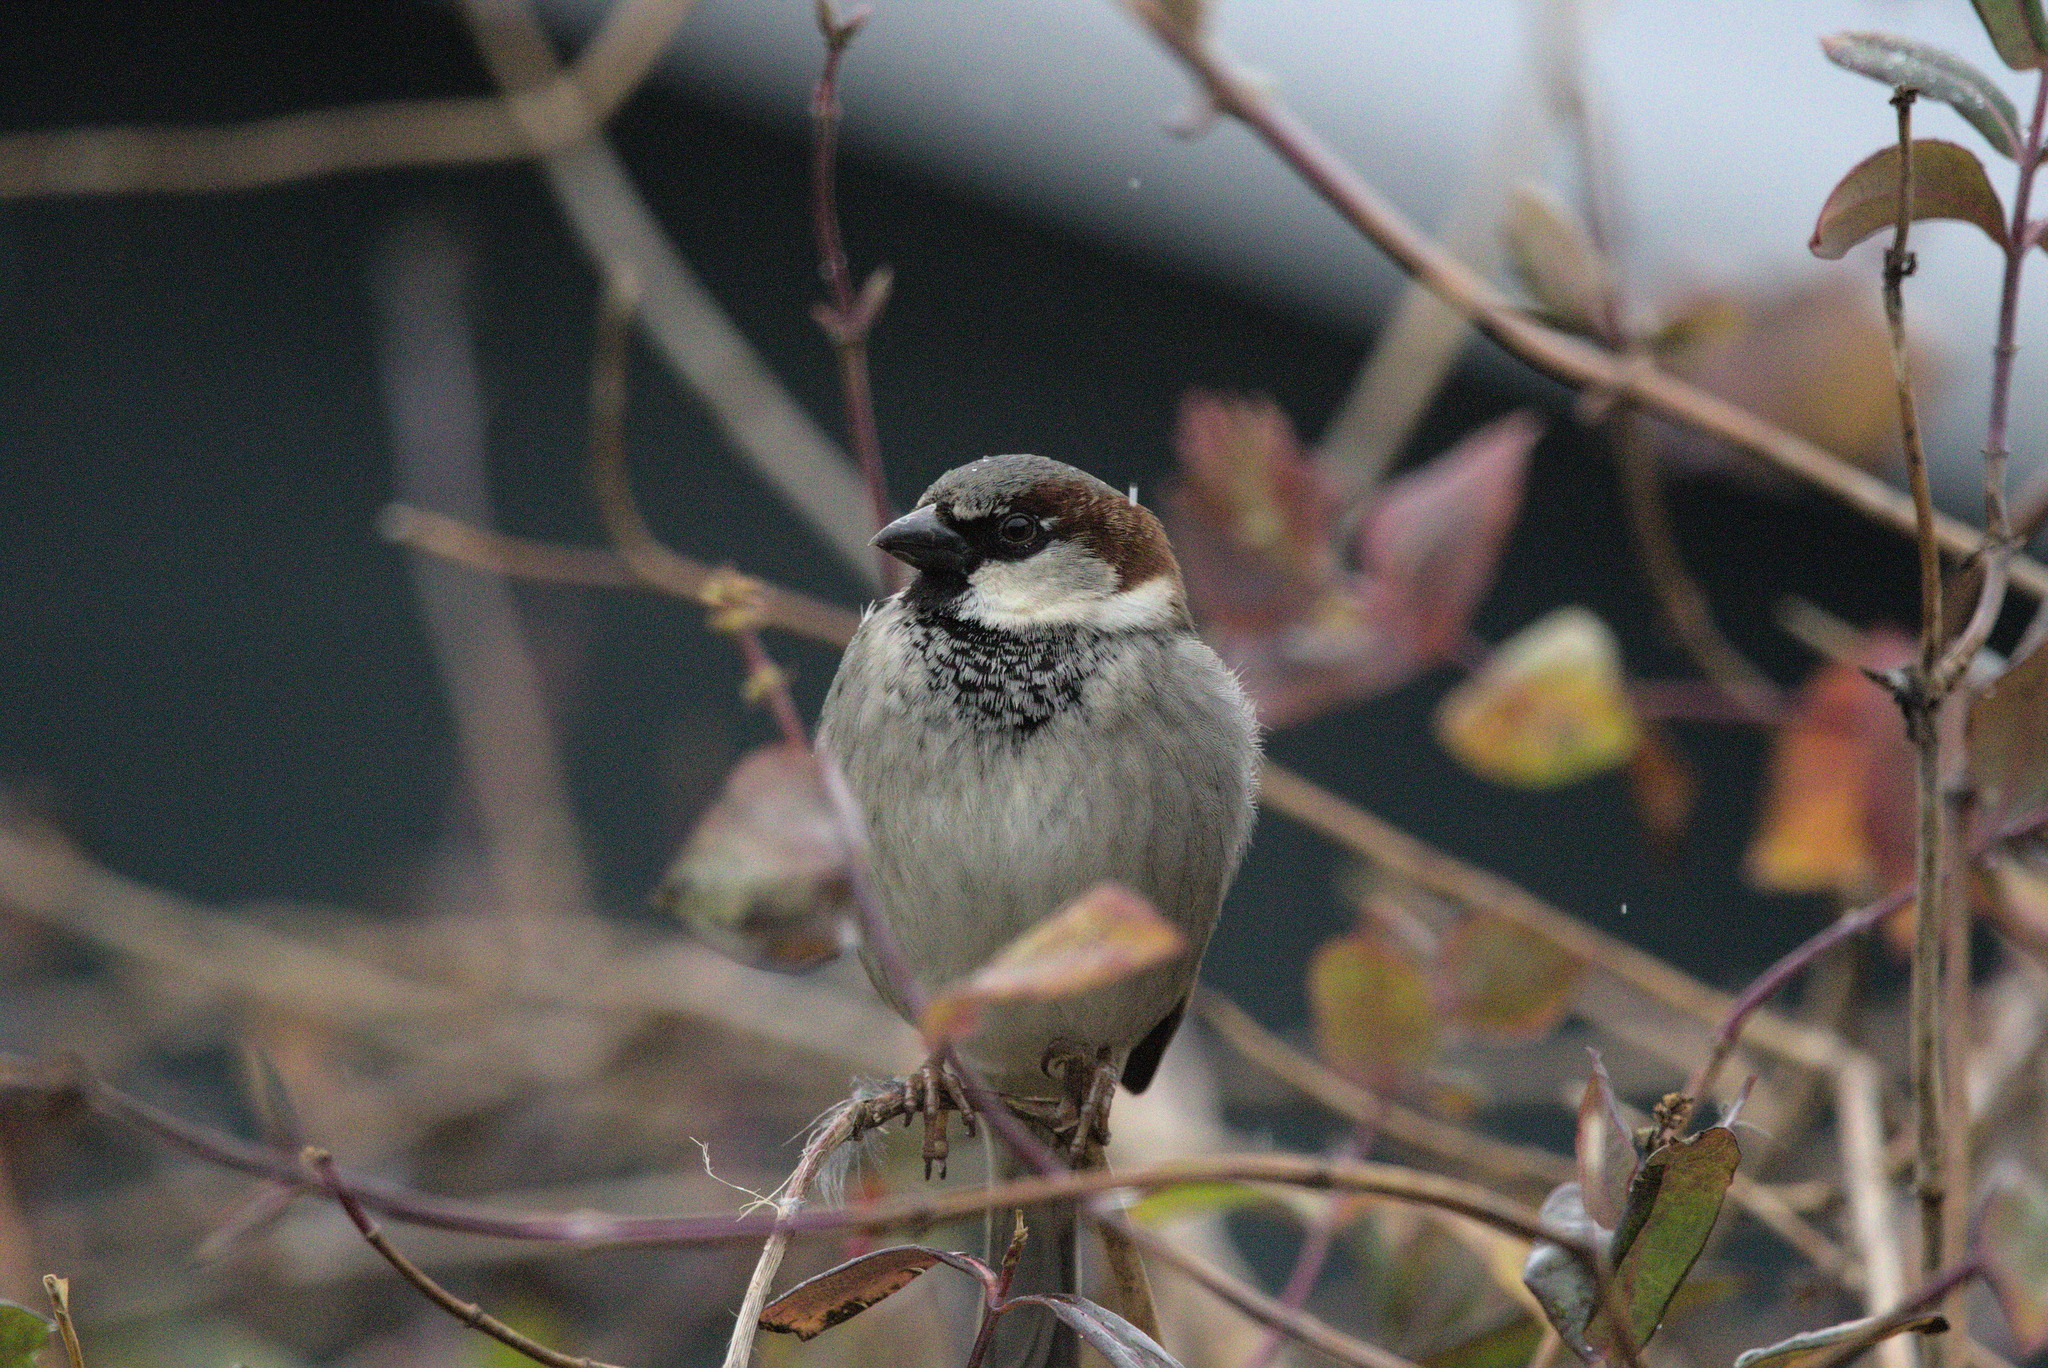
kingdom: Animalia
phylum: Chordata
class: Aves
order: Passeriformes
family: Passeridae
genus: Passer
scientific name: Passer domesticus
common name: House sparrow
